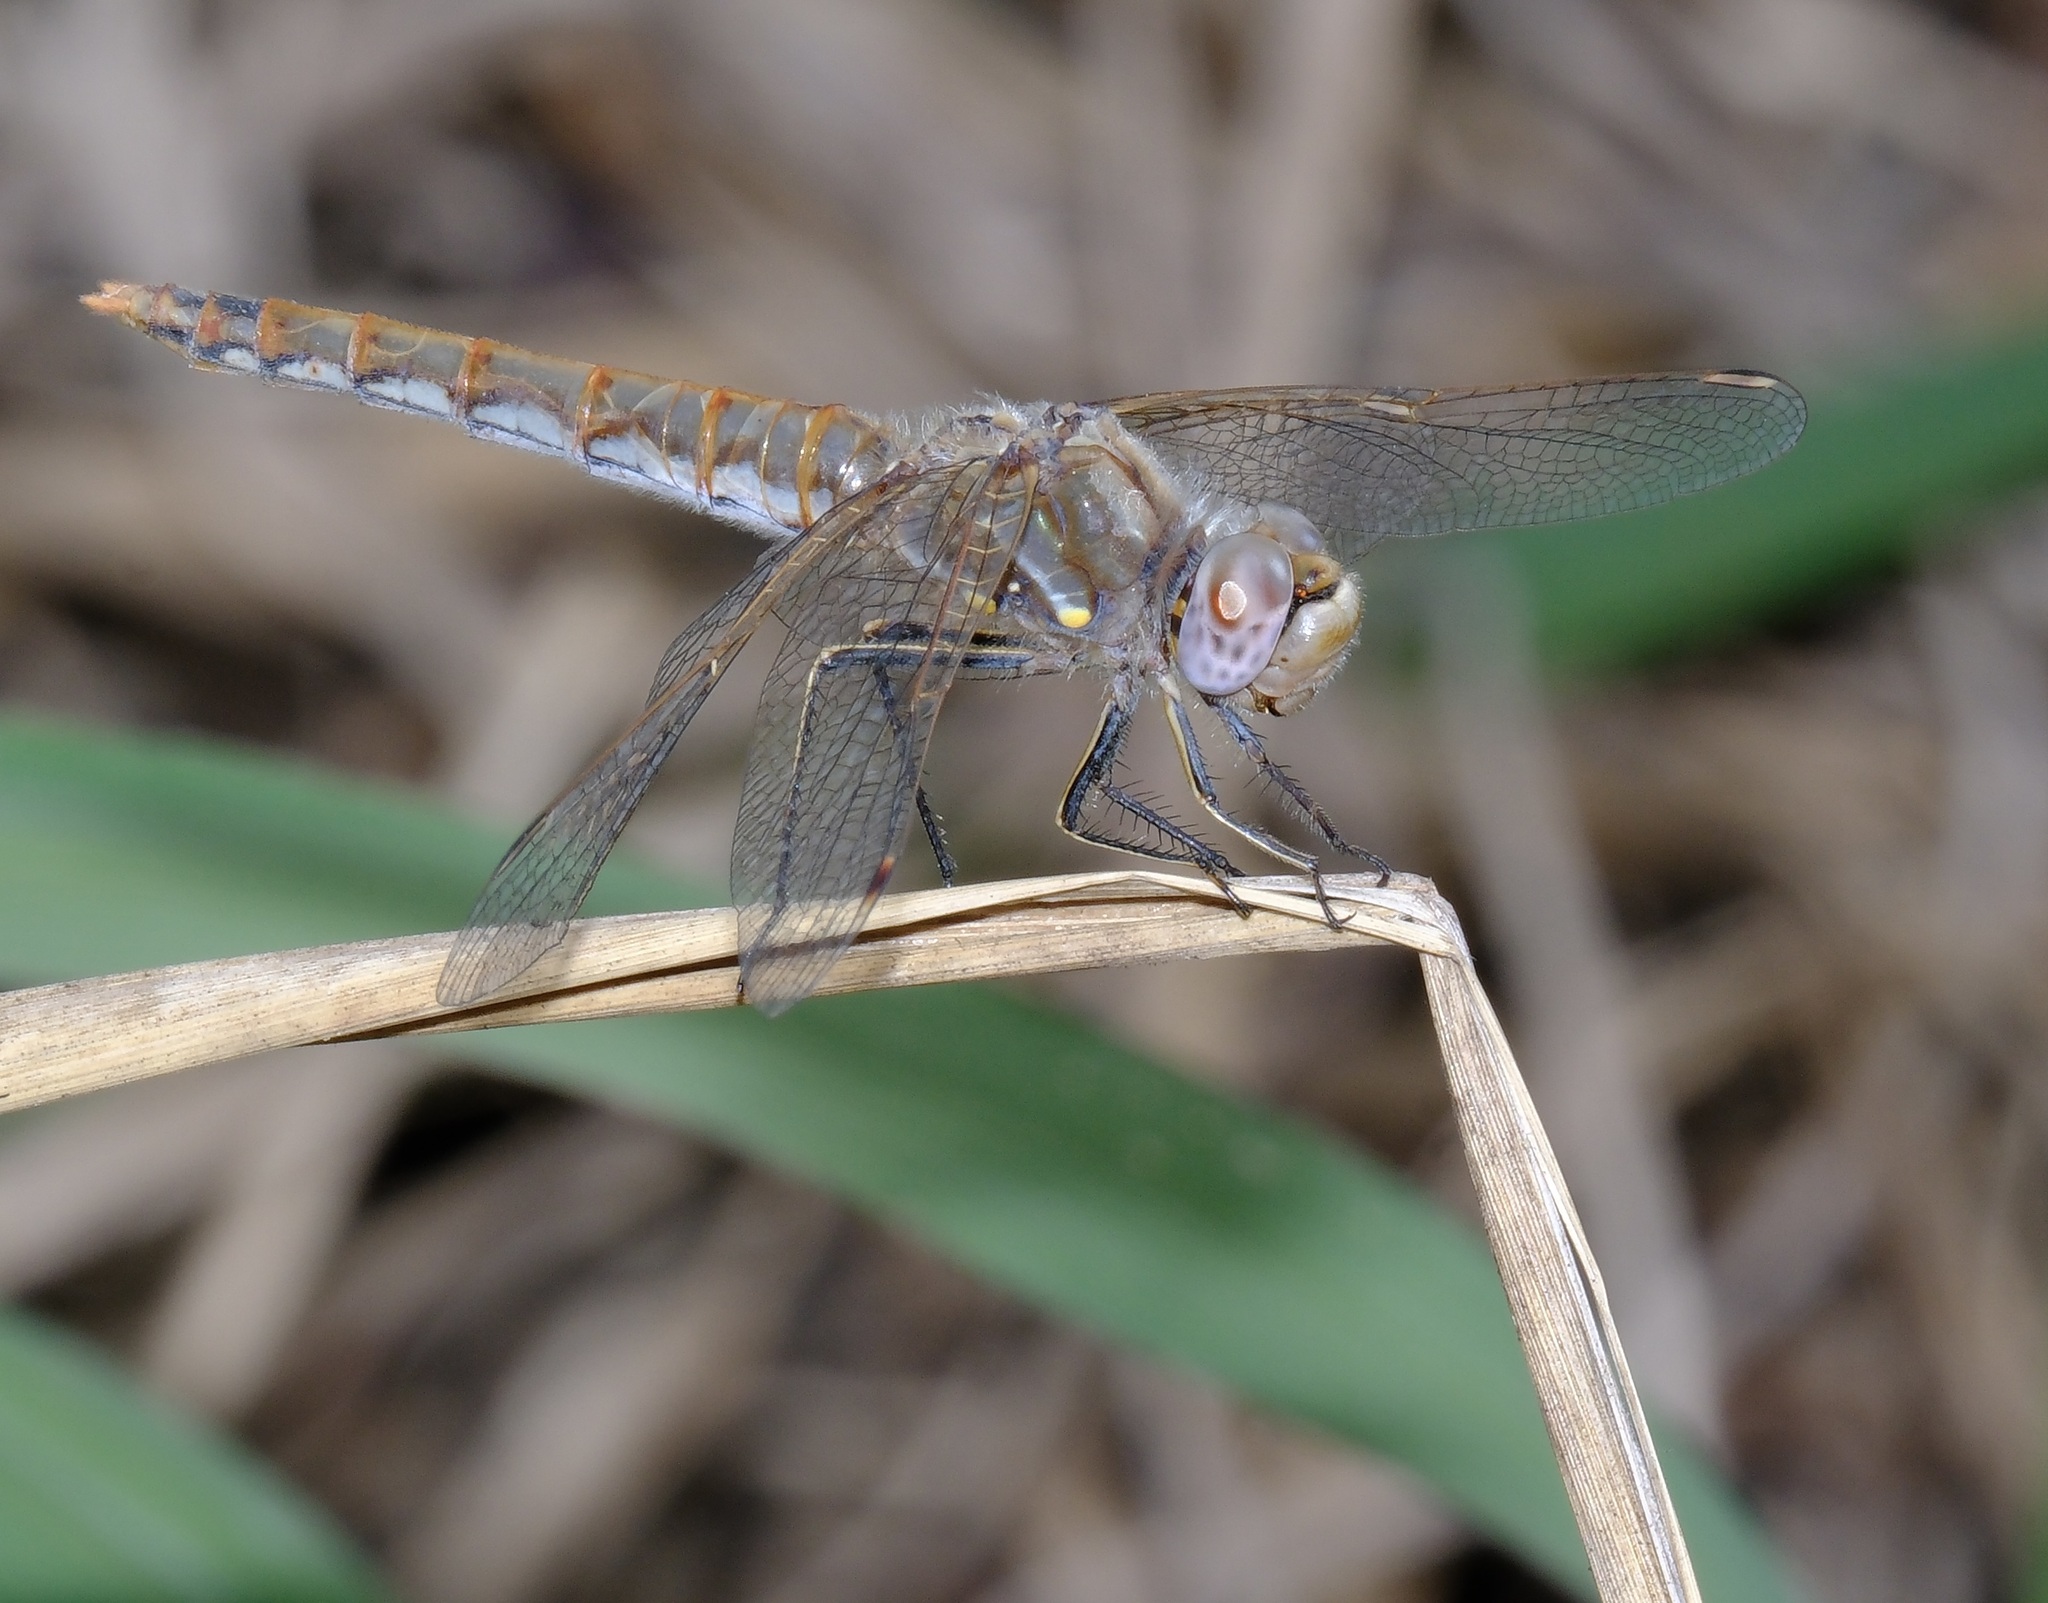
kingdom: Animalia
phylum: Arthropoda
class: Insecta
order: Odonata
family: Libellulidae
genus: Sympetrum
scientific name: Sympetrum corruptum
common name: Variegated meadowhawk
